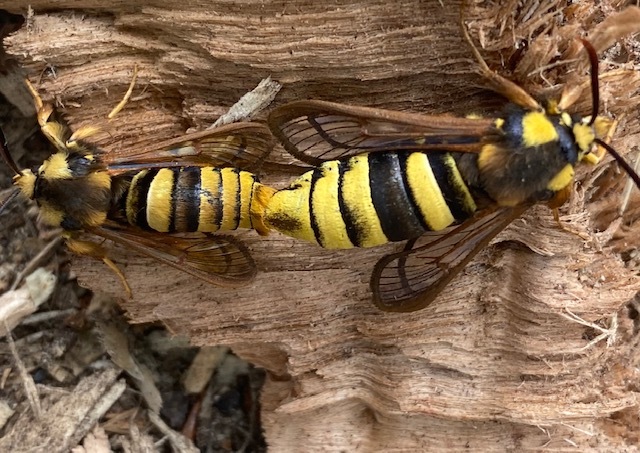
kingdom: Animalia
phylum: Arthropoda
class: Insecta
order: Lepidoptera
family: Sesiidae
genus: Sesia
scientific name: Sesia apiformis
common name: Hornet moth
